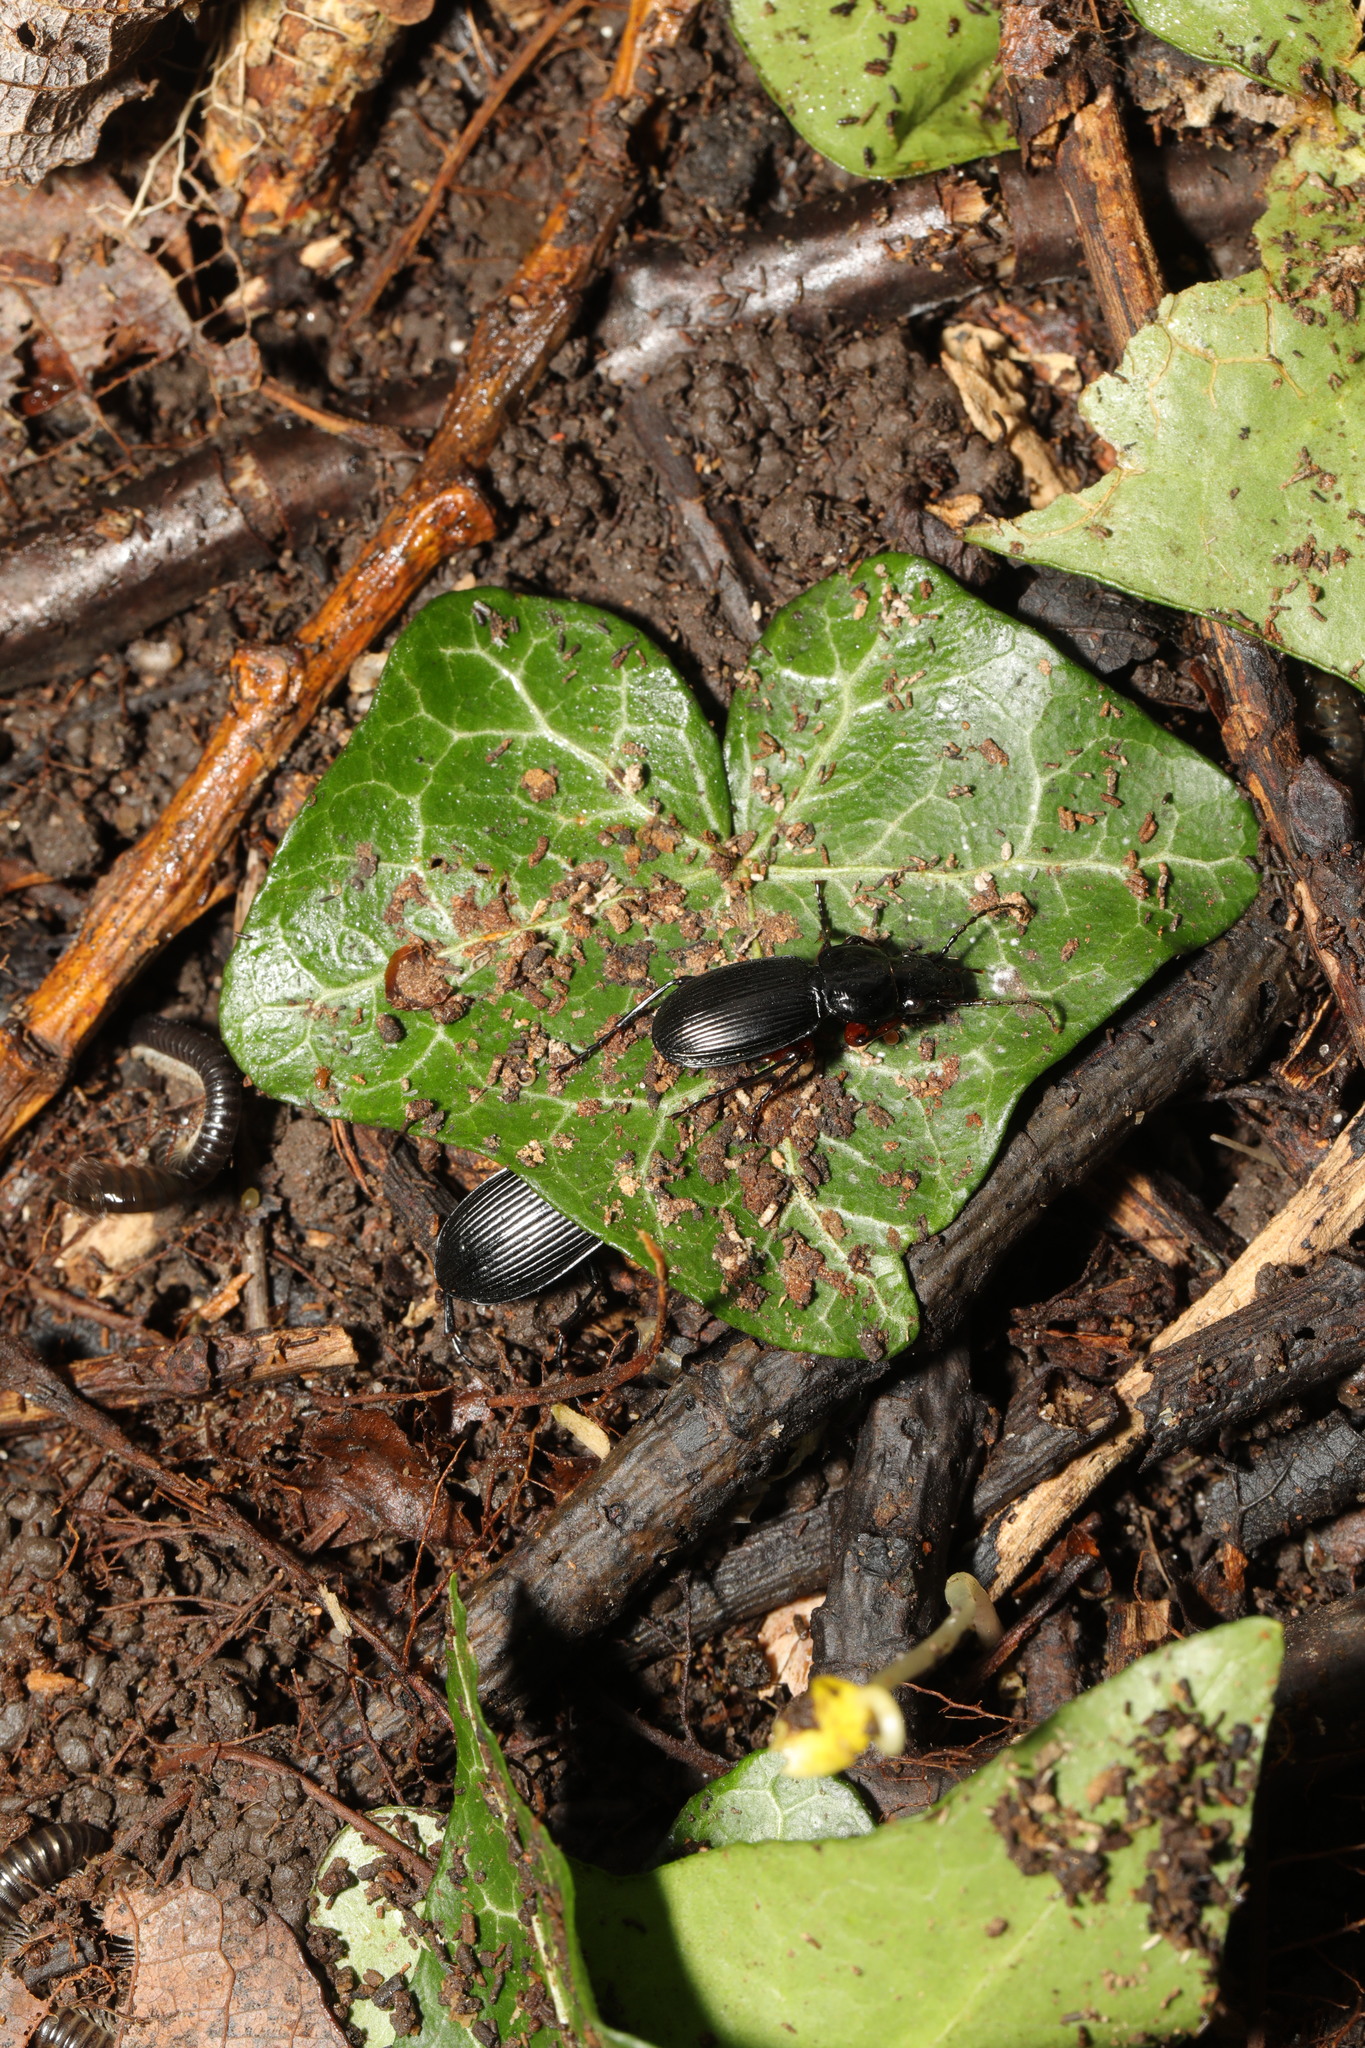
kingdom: Animalia
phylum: Arthropoda
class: Insecta
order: Coleoptera
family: Carabidae
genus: Pterostichus
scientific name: Pterostichus madidus
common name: Black clock
